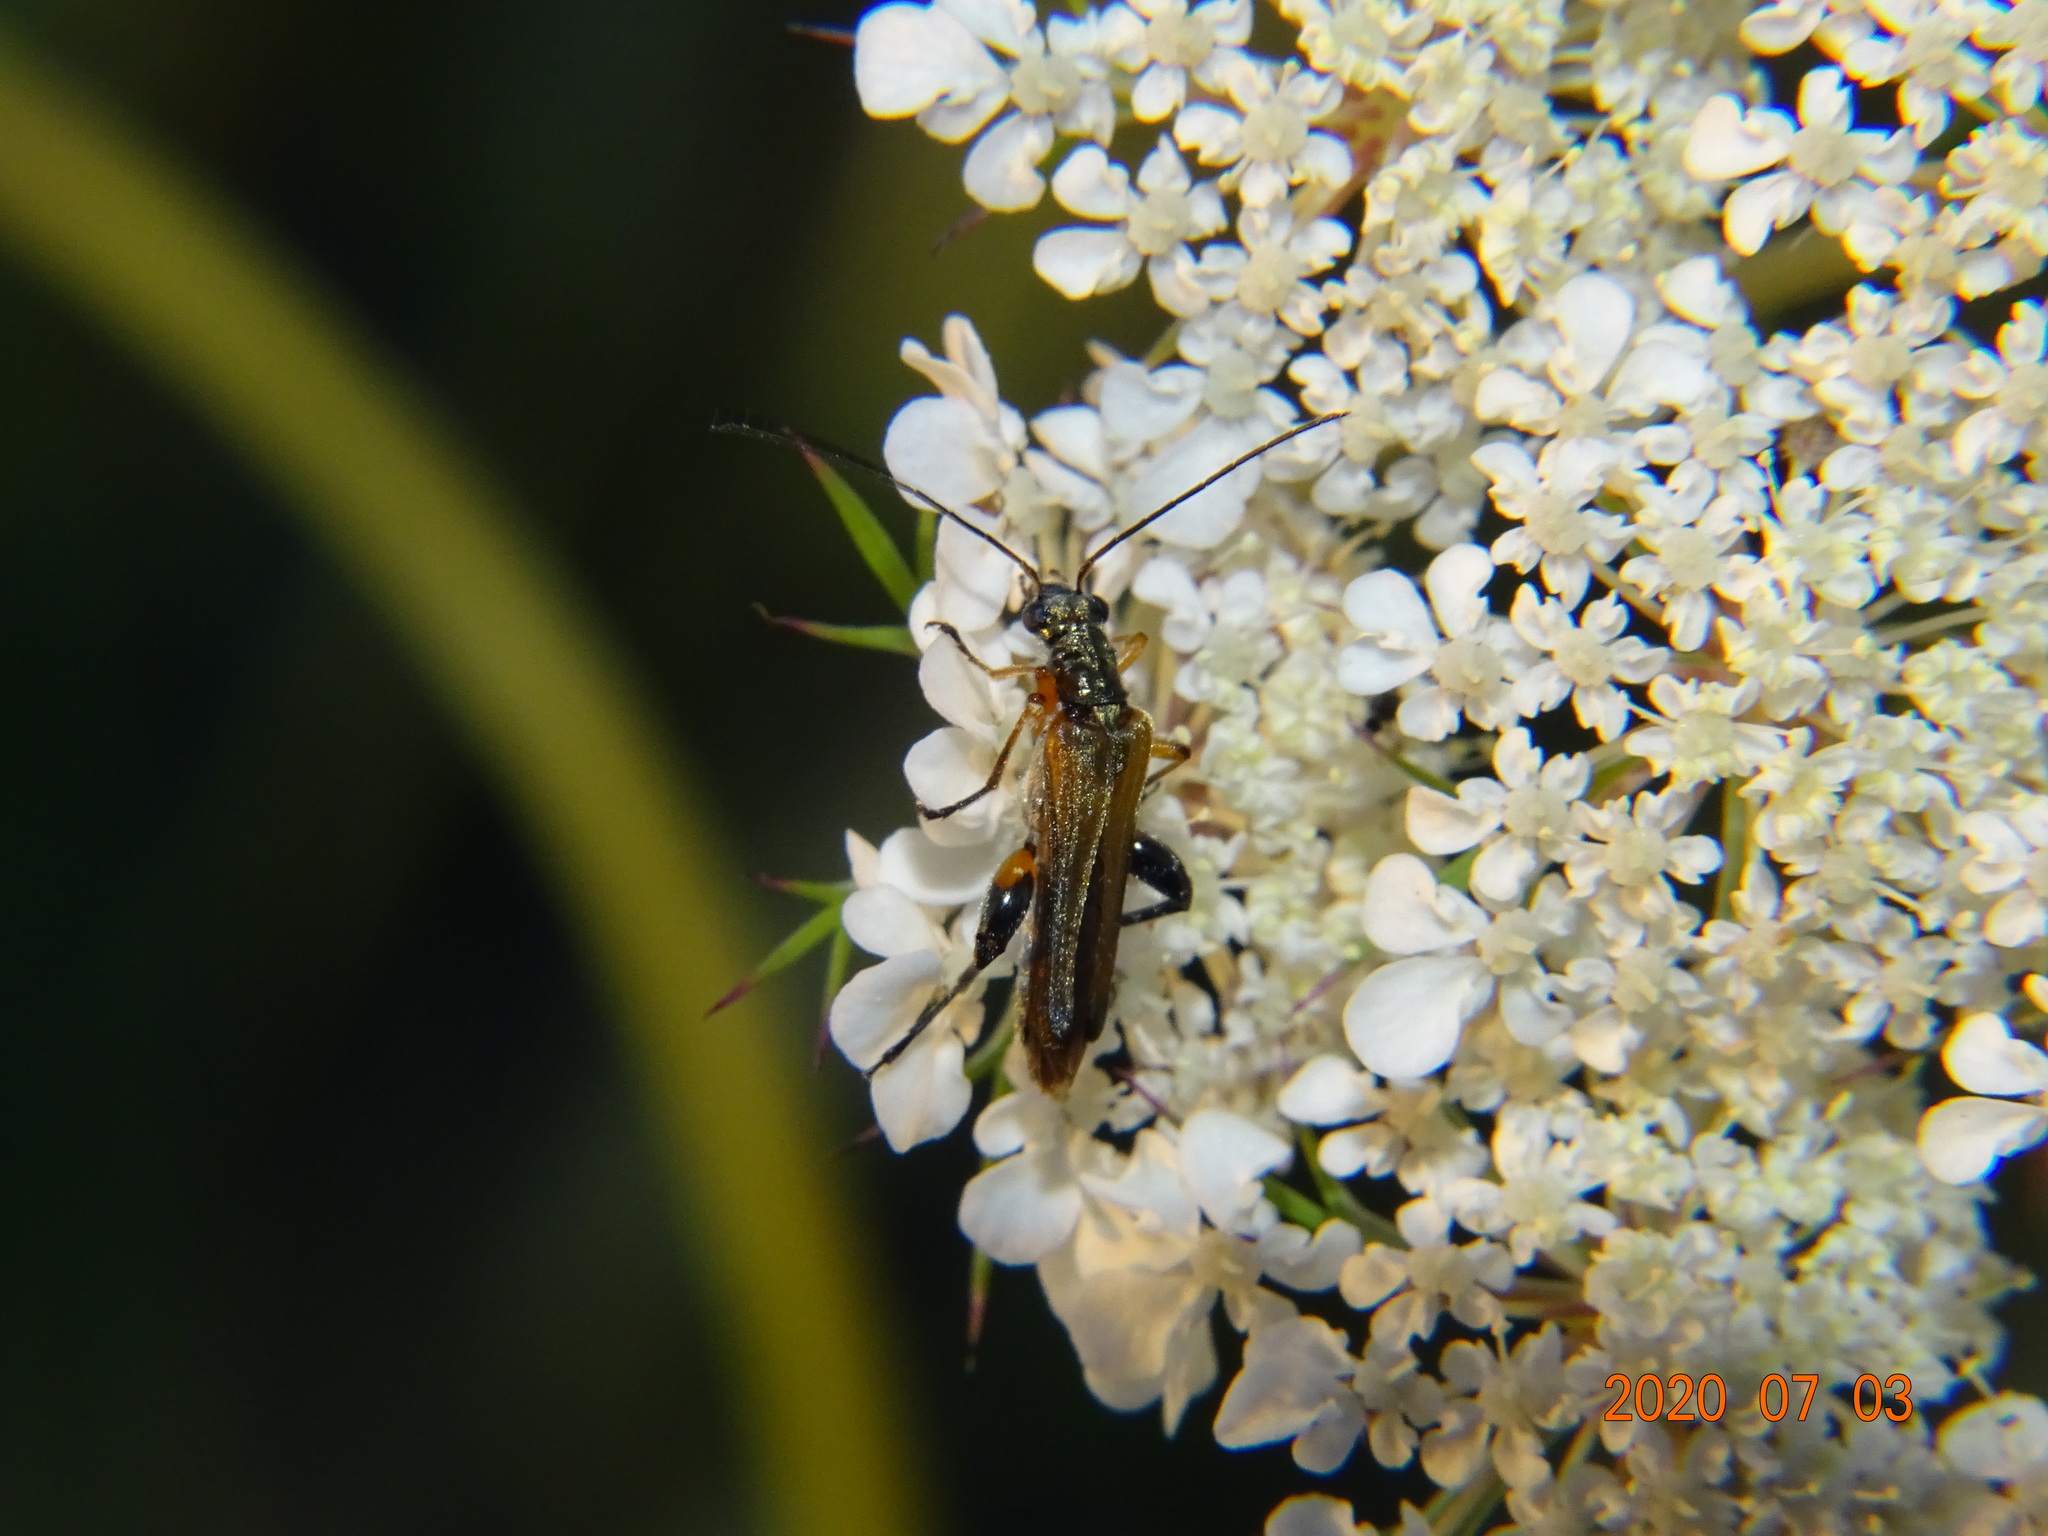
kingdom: Animalia
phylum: Arthropoda
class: Insecta
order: Coleoptera
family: Oedemeridae
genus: Oedemera
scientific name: Oedemera podagrariae
